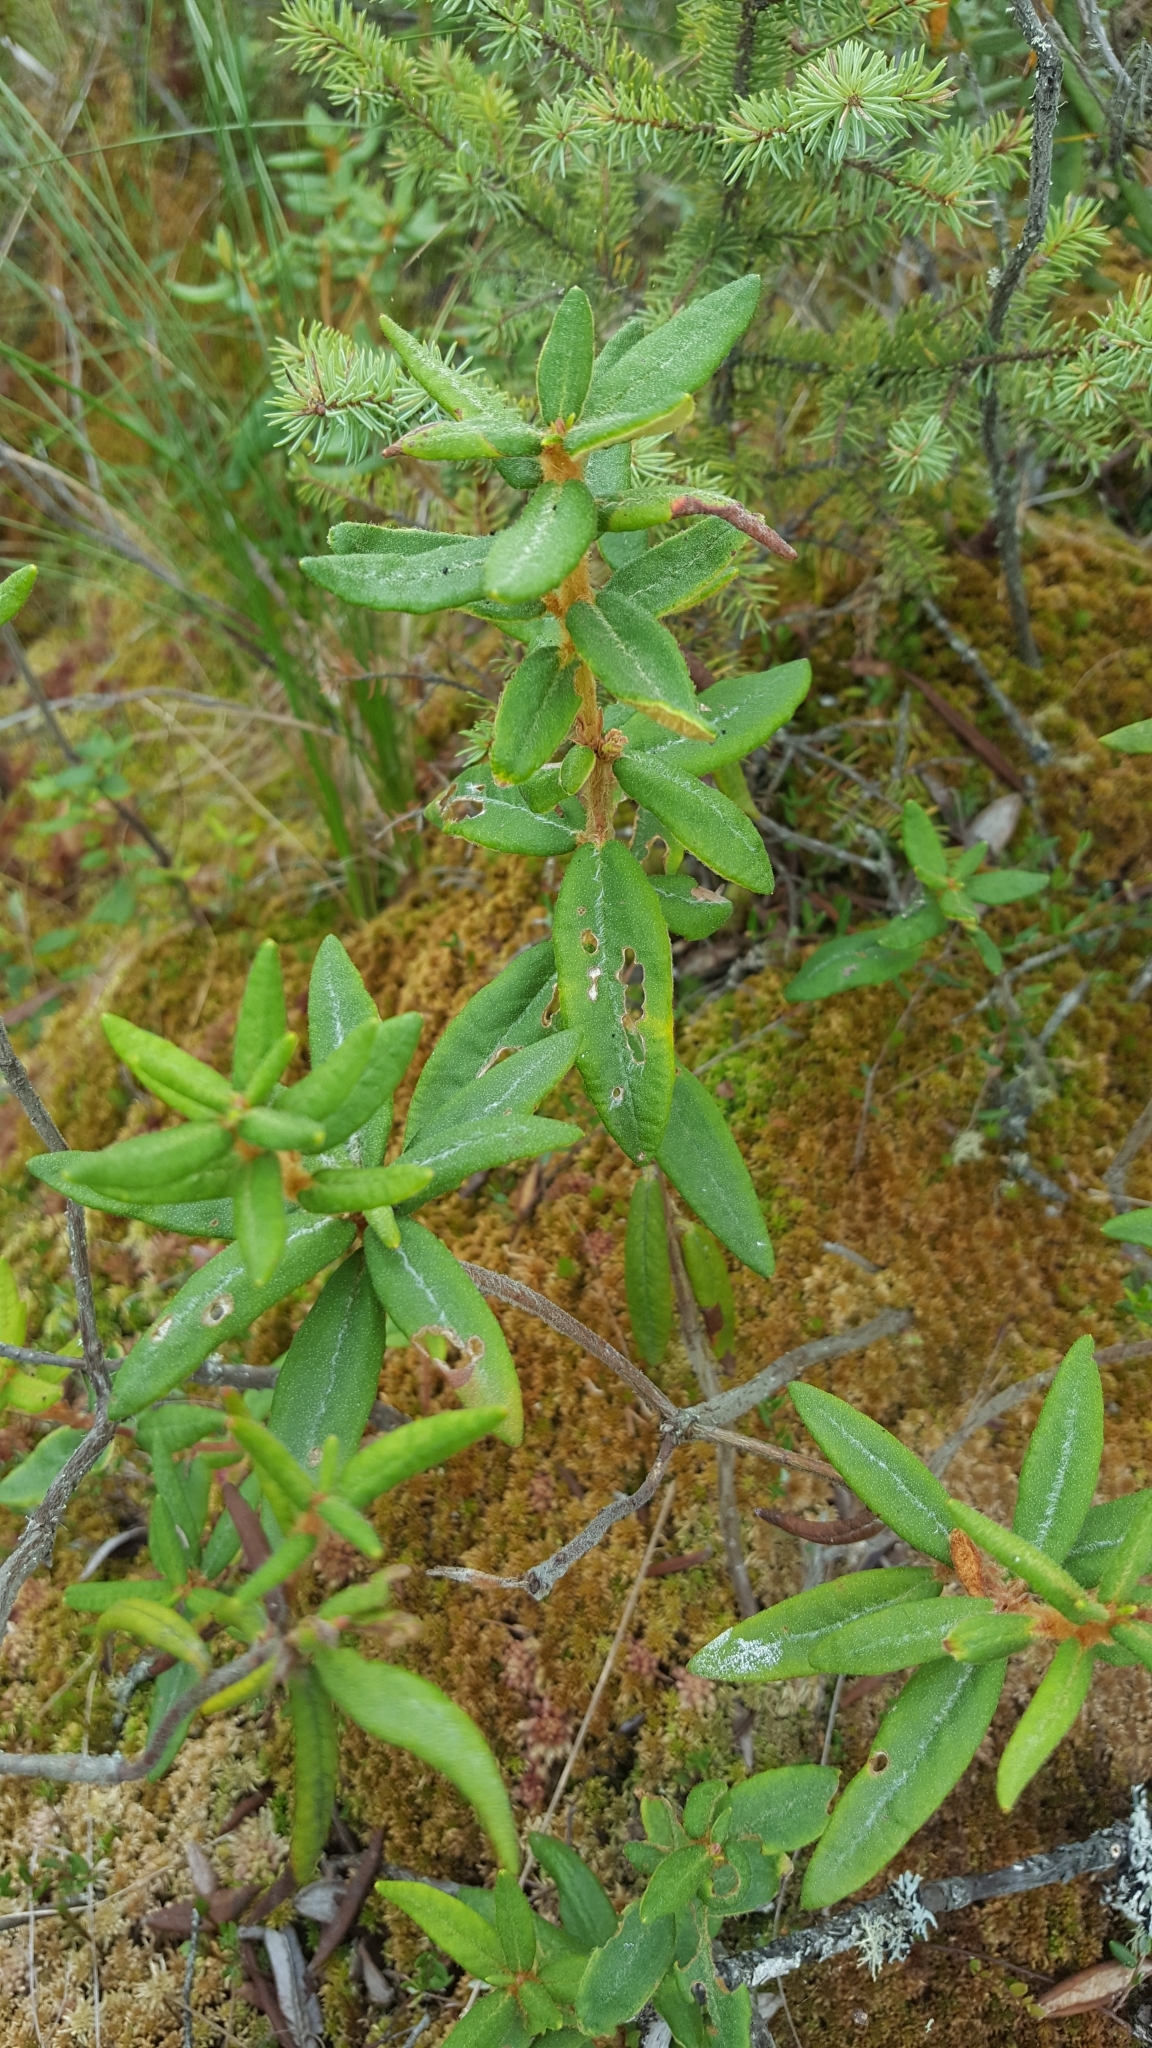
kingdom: Plantae
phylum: Tracheophyta
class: Magnoliopsida
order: Ericales
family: Ericaceae
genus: Rhododendron
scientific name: Rhododendron groenlandicum
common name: Bog labrador tea
